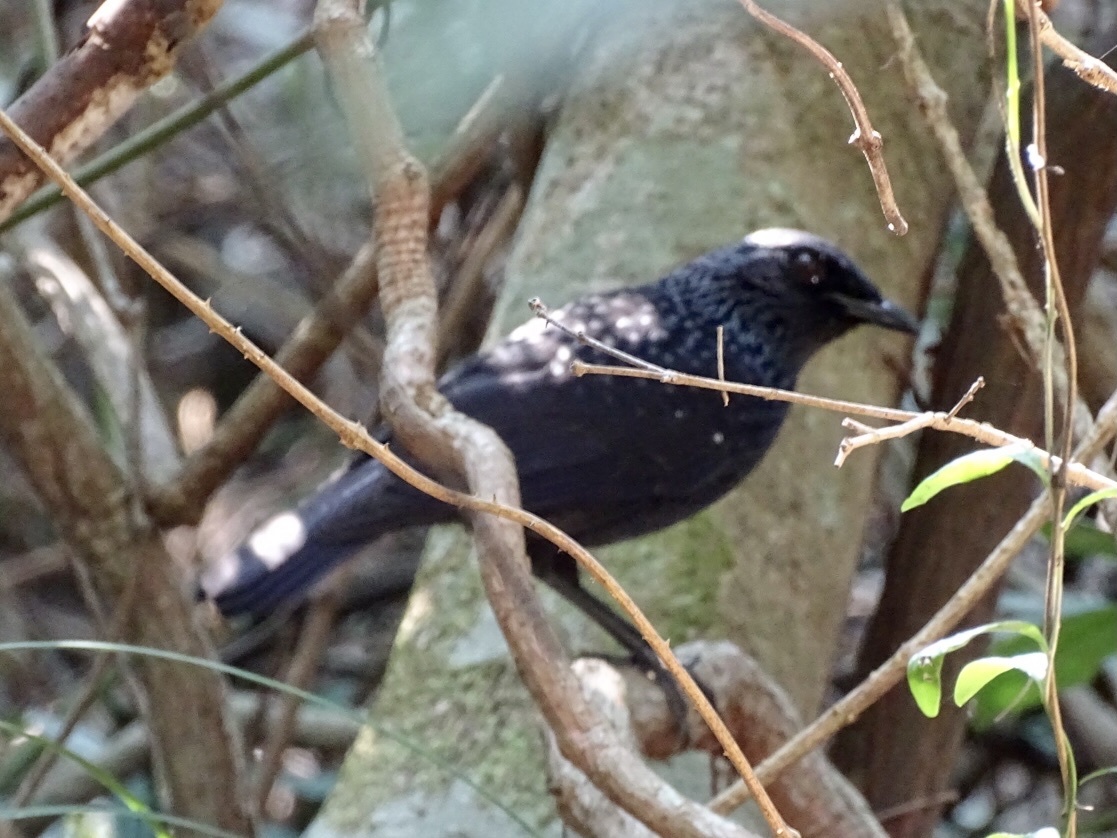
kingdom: Animalia
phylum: Chordata
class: Aves
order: Passeriformes
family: Muscicapidae
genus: Myophonus
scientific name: Myophonus caeruleus
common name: Blue whistling-thrush
